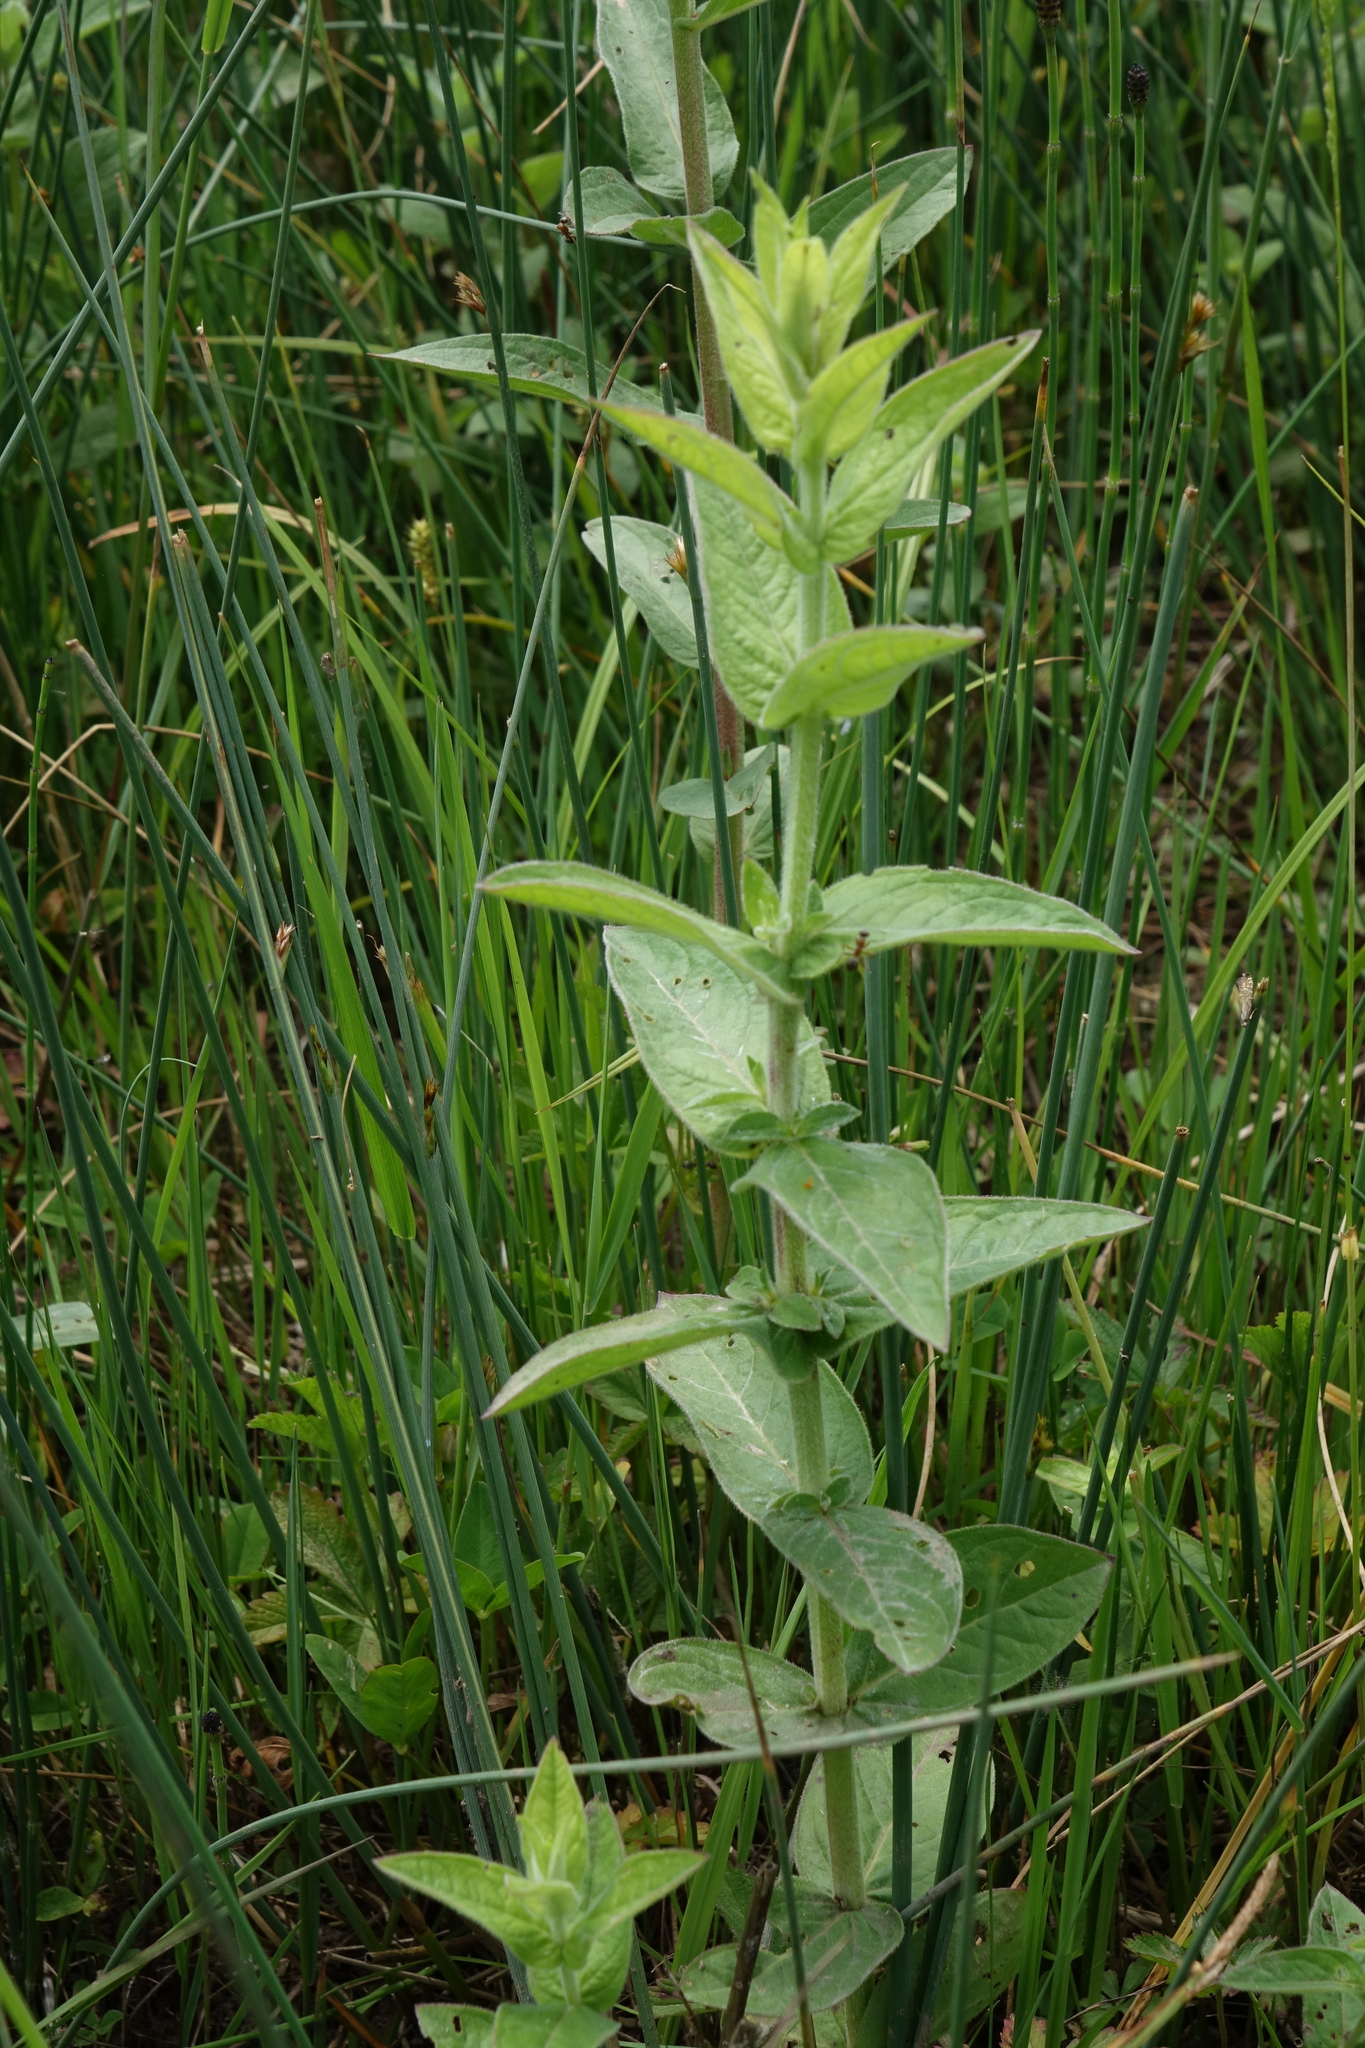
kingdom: Plantae
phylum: Tracheophyta
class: Magnoliopsida
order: Myrtales
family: Lythraceae
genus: Lythrum
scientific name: Lythrum salicaria
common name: Purple loosestrife
